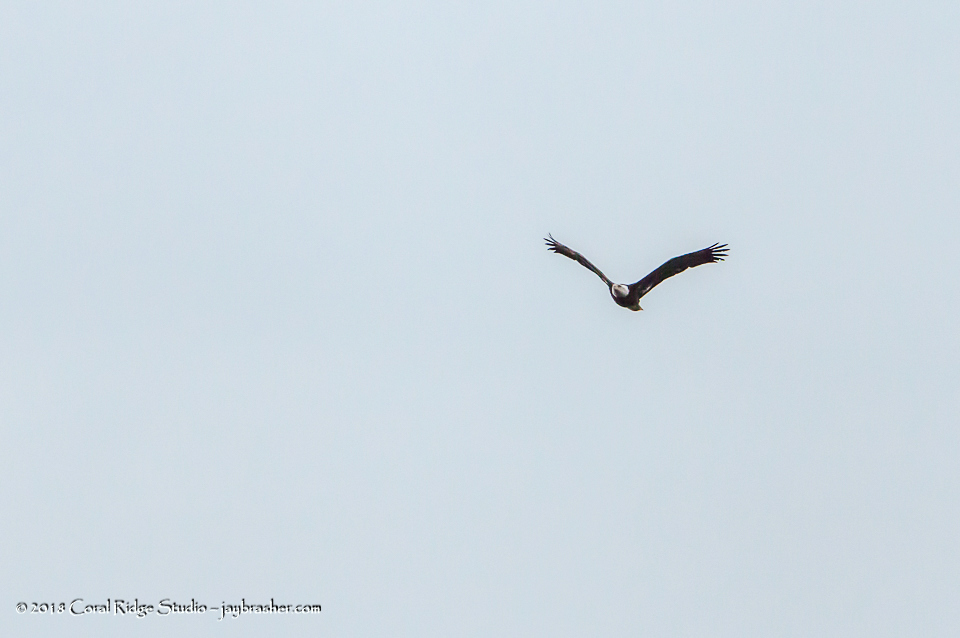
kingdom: Animalia
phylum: Chordata
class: Aves
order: Accipitriformes
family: Accipitridae
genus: Haliaeetus
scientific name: Haliaeetus leucocephalus
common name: Bald eagle
